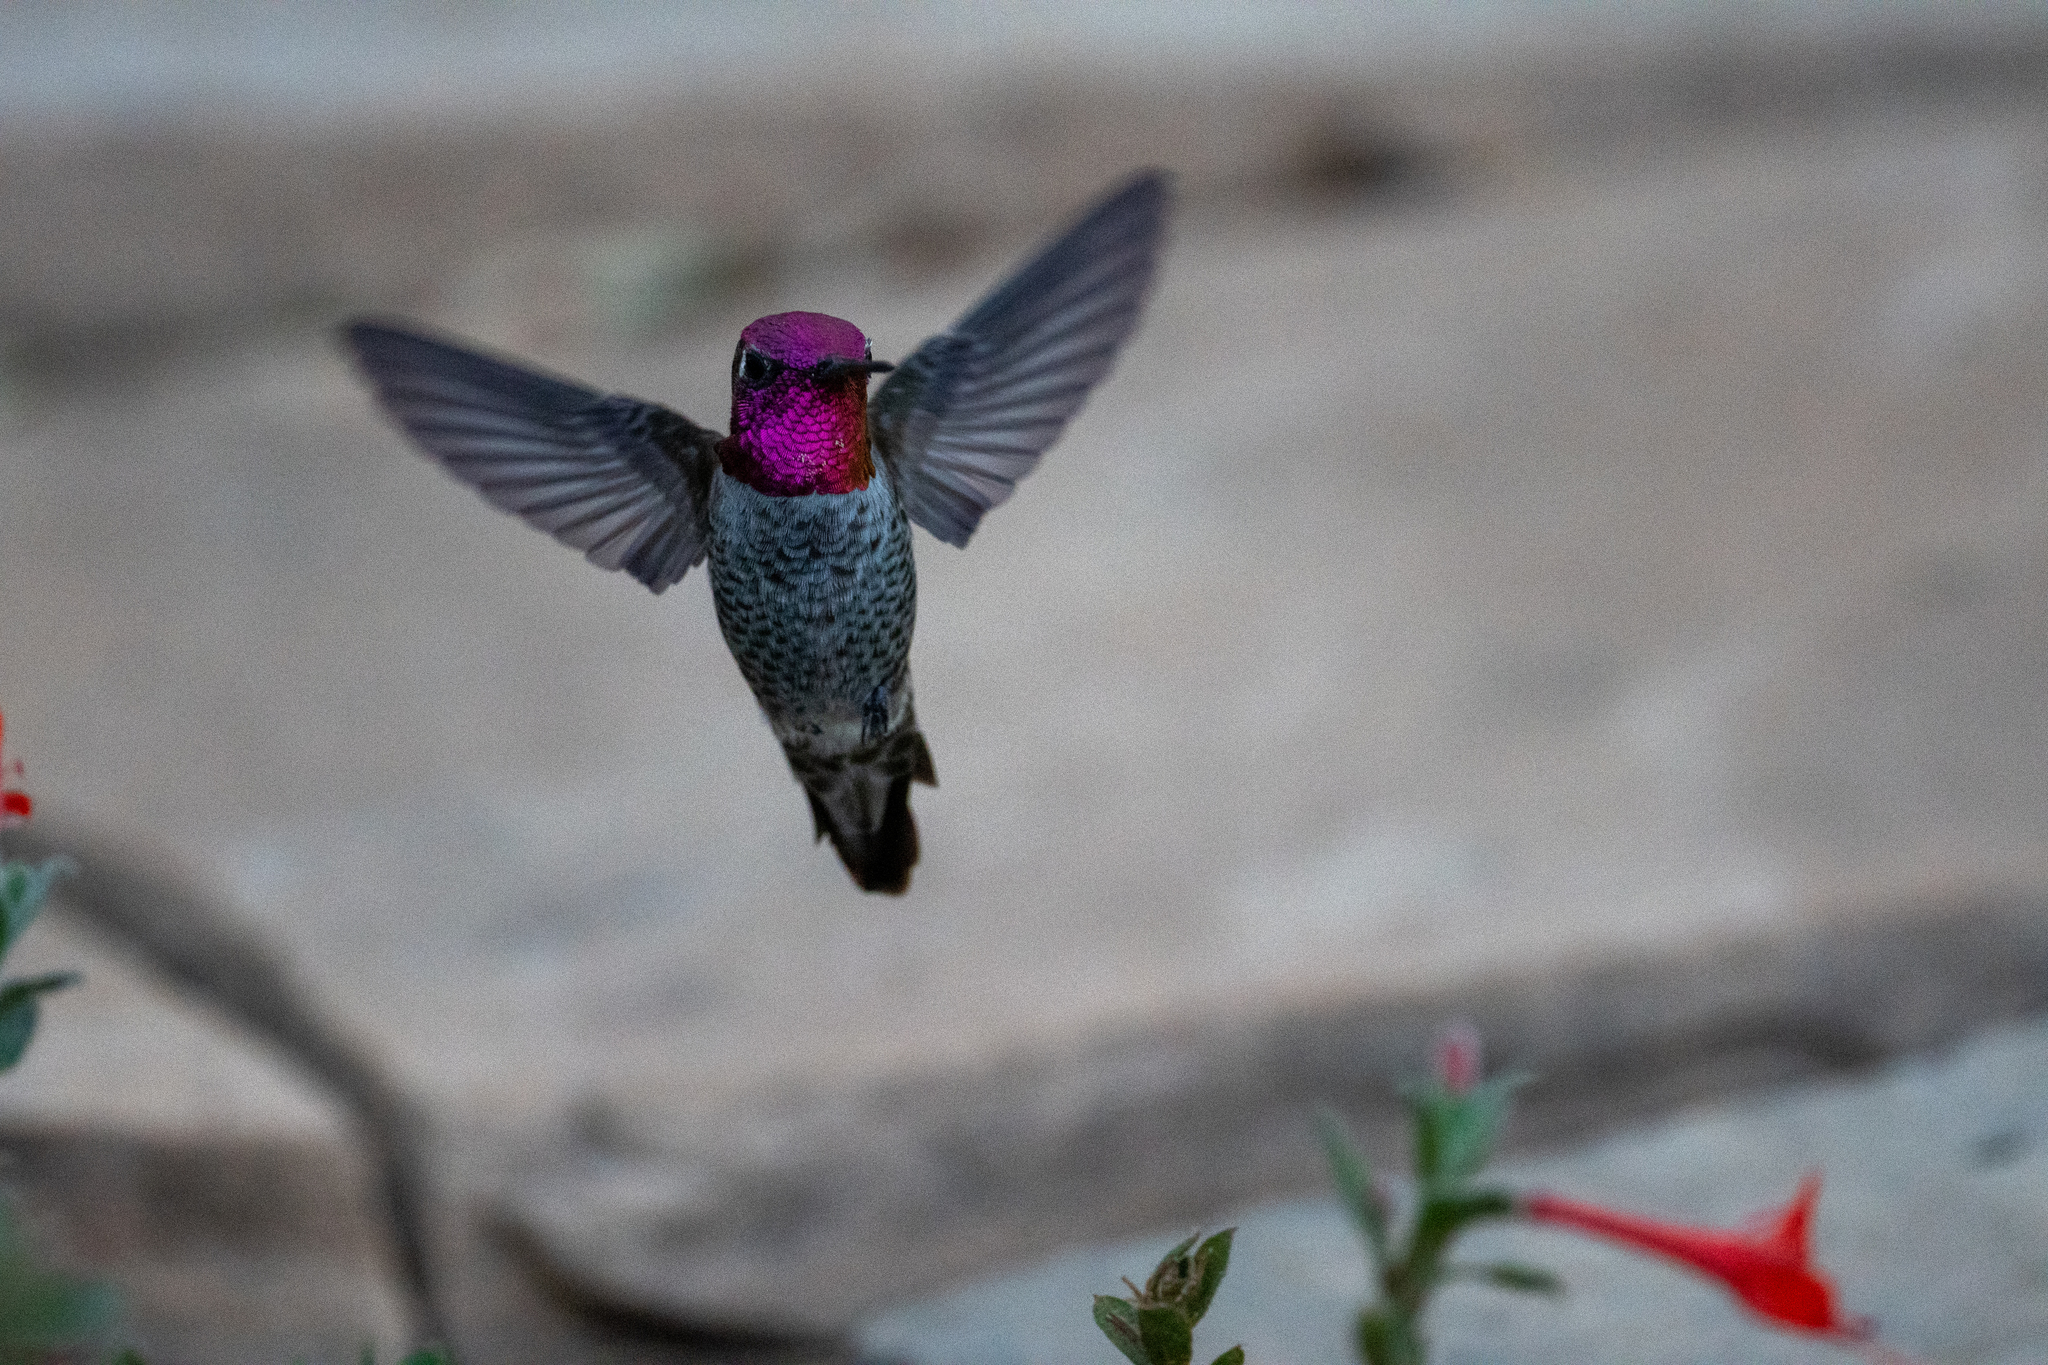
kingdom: Animalia
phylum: Chordata
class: Aves
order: Apodiformes
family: Trochilidae
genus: Calypte
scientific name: Calypte anna
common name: Anna's hummingbird
